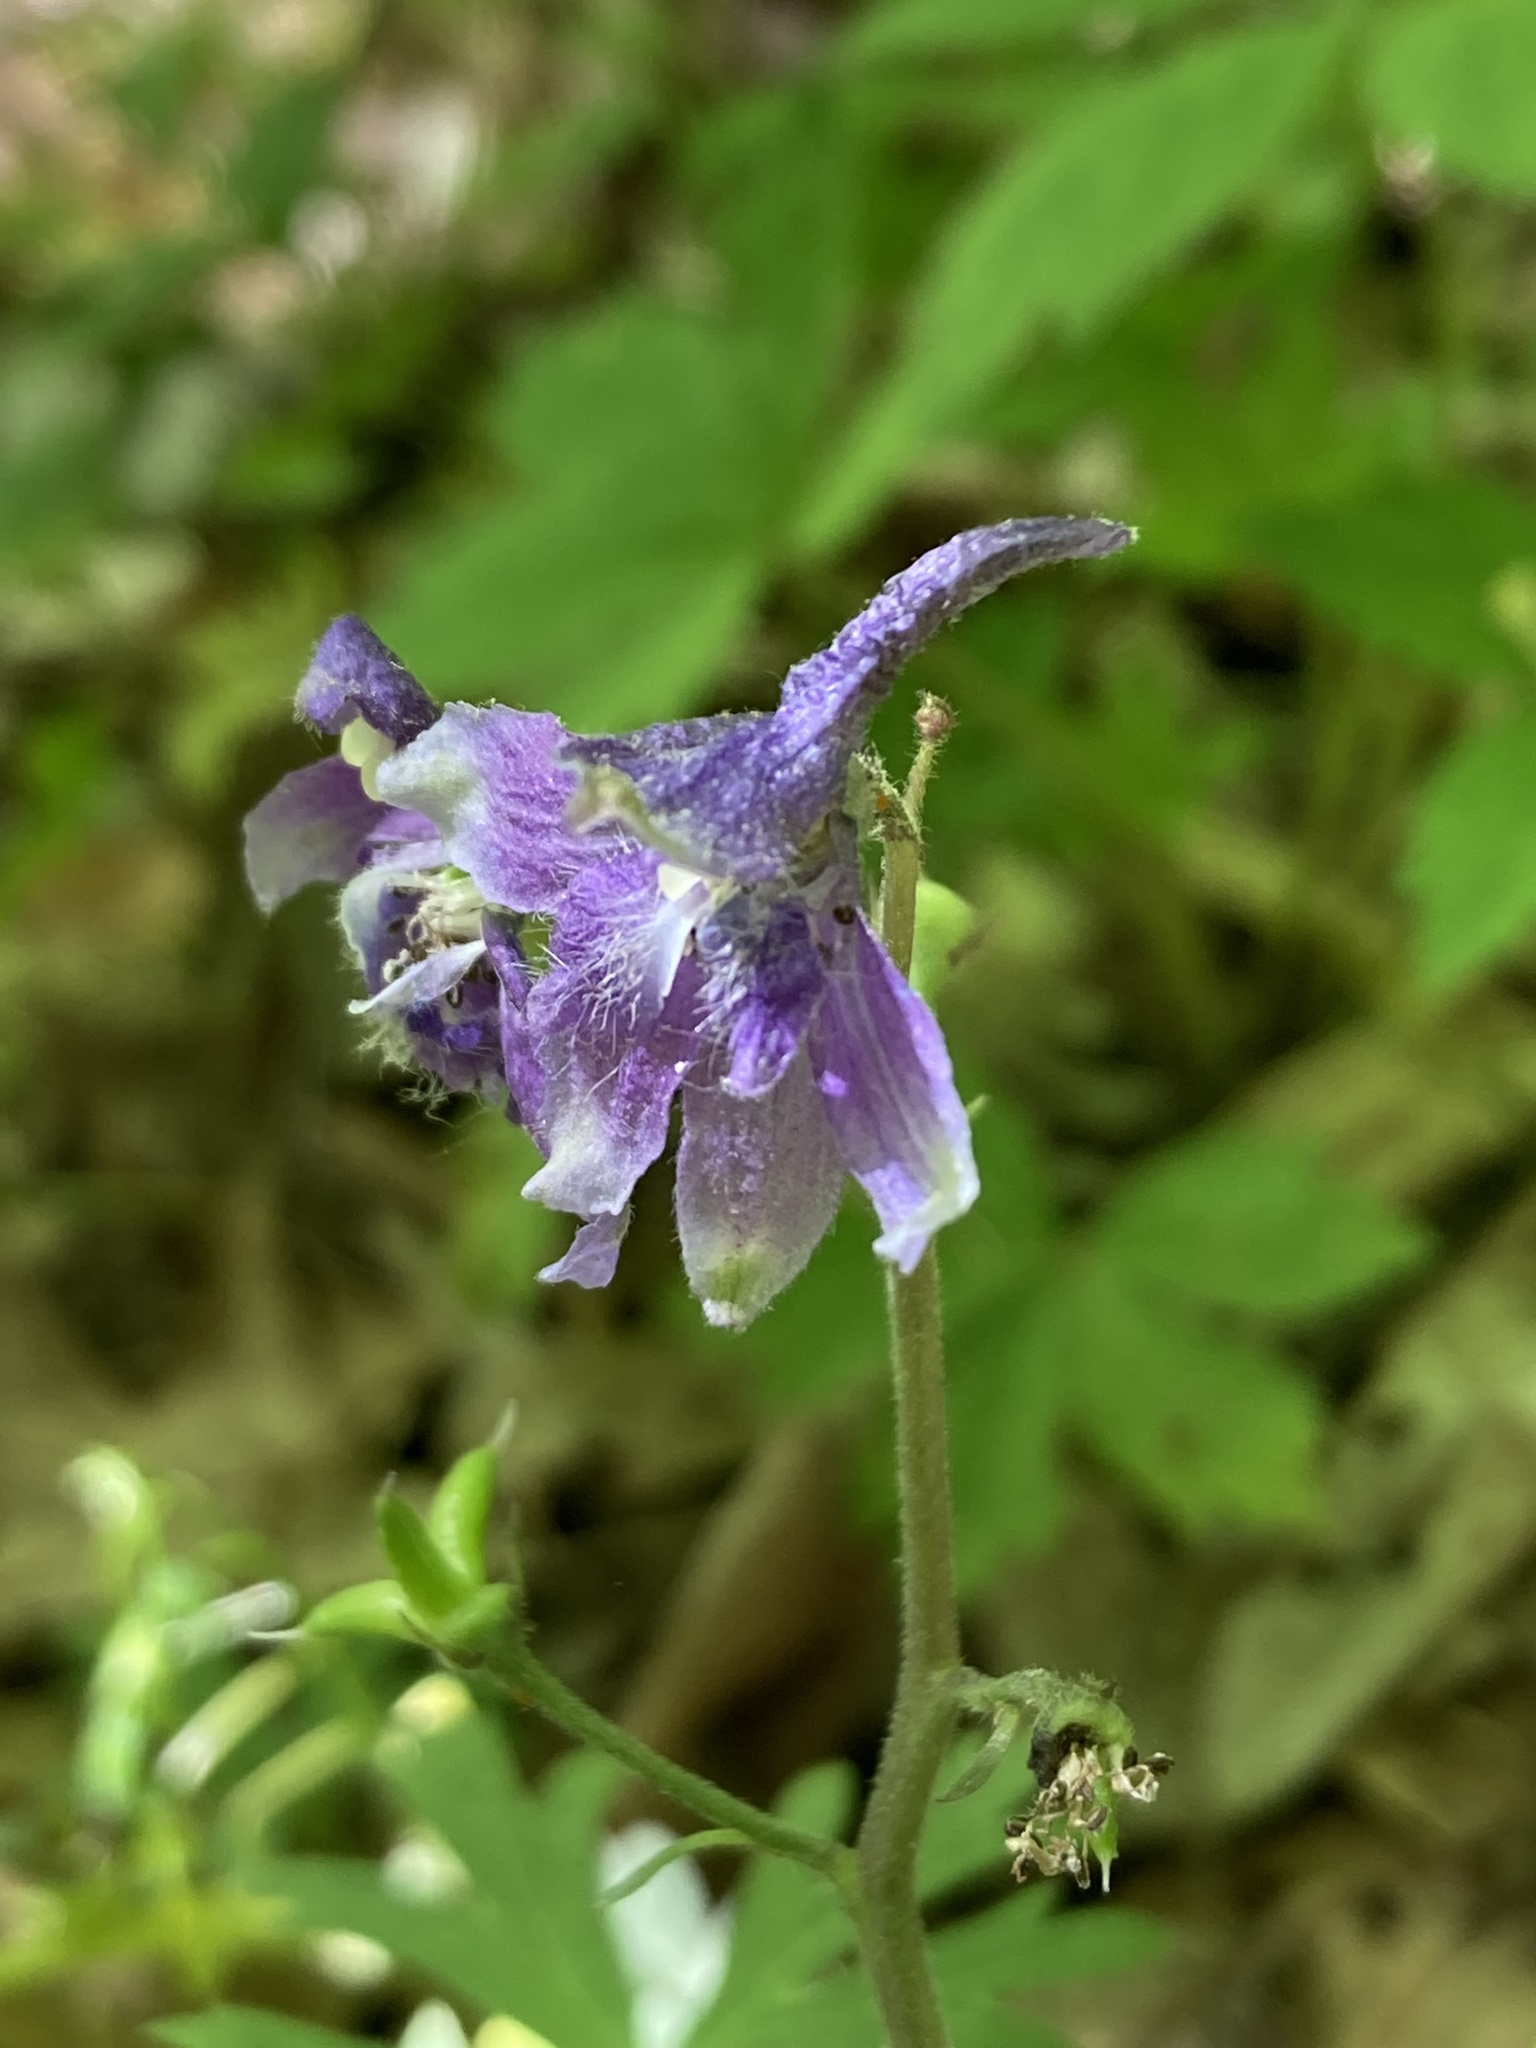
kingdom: Plantae
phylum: Tracheophyta
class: Magnoliopsida
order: Ranunculales
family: Ranunculaceae
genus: Delphinium
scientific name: Delphinium tricorne
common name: Dwarf larkspur
